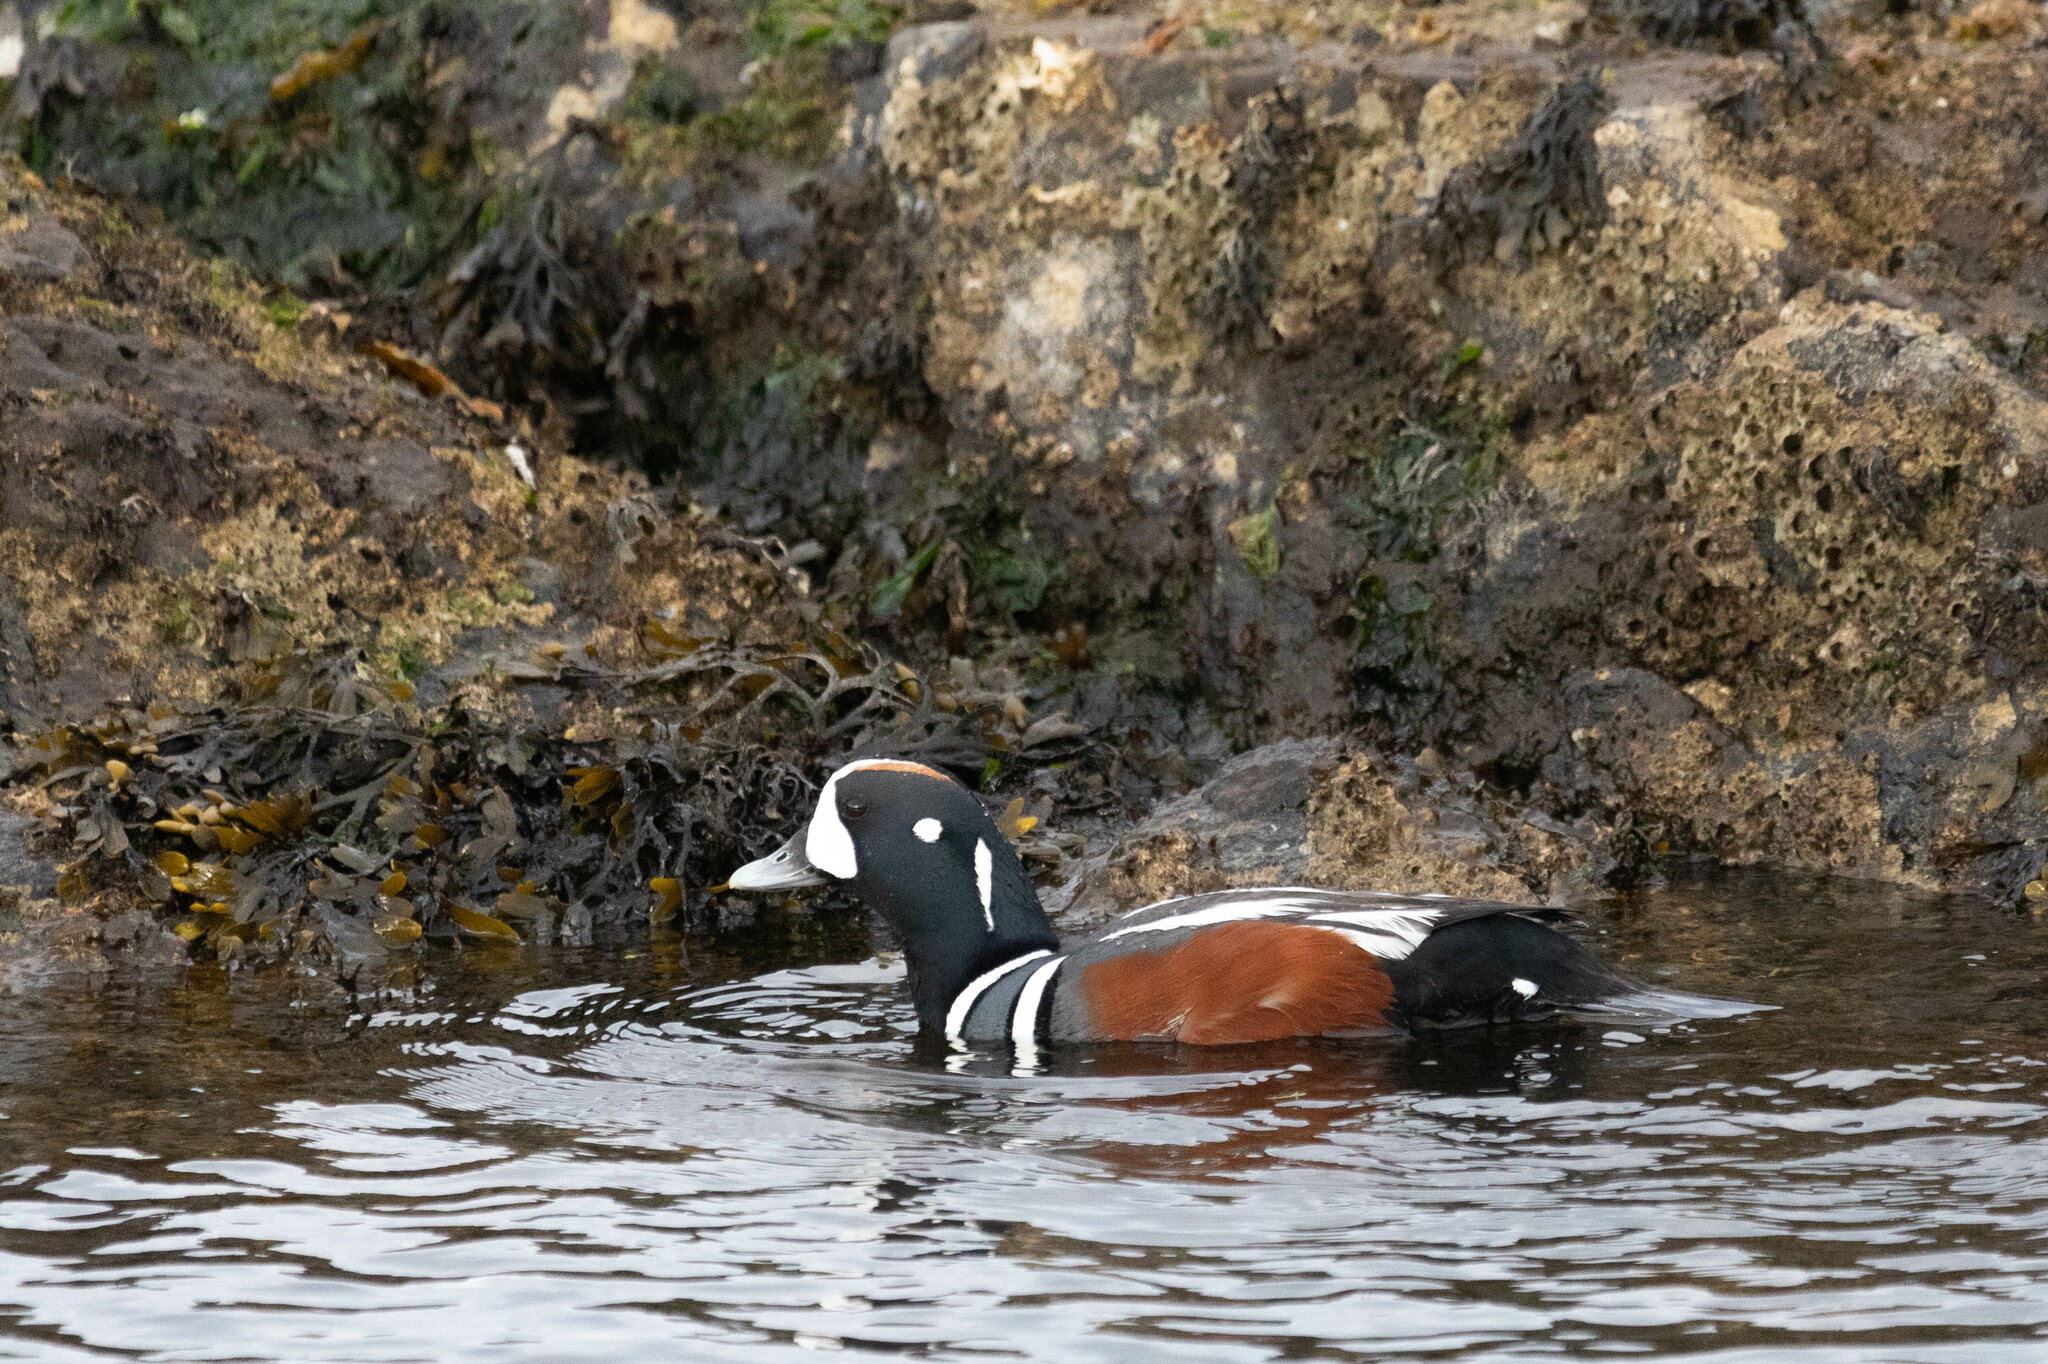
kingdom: Animalia
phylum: Chordata
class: Aves
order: Anseriformes
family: Anatidae
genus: Histrionicus
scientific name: Histrionicus histrionicus
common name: Harlequin duck
